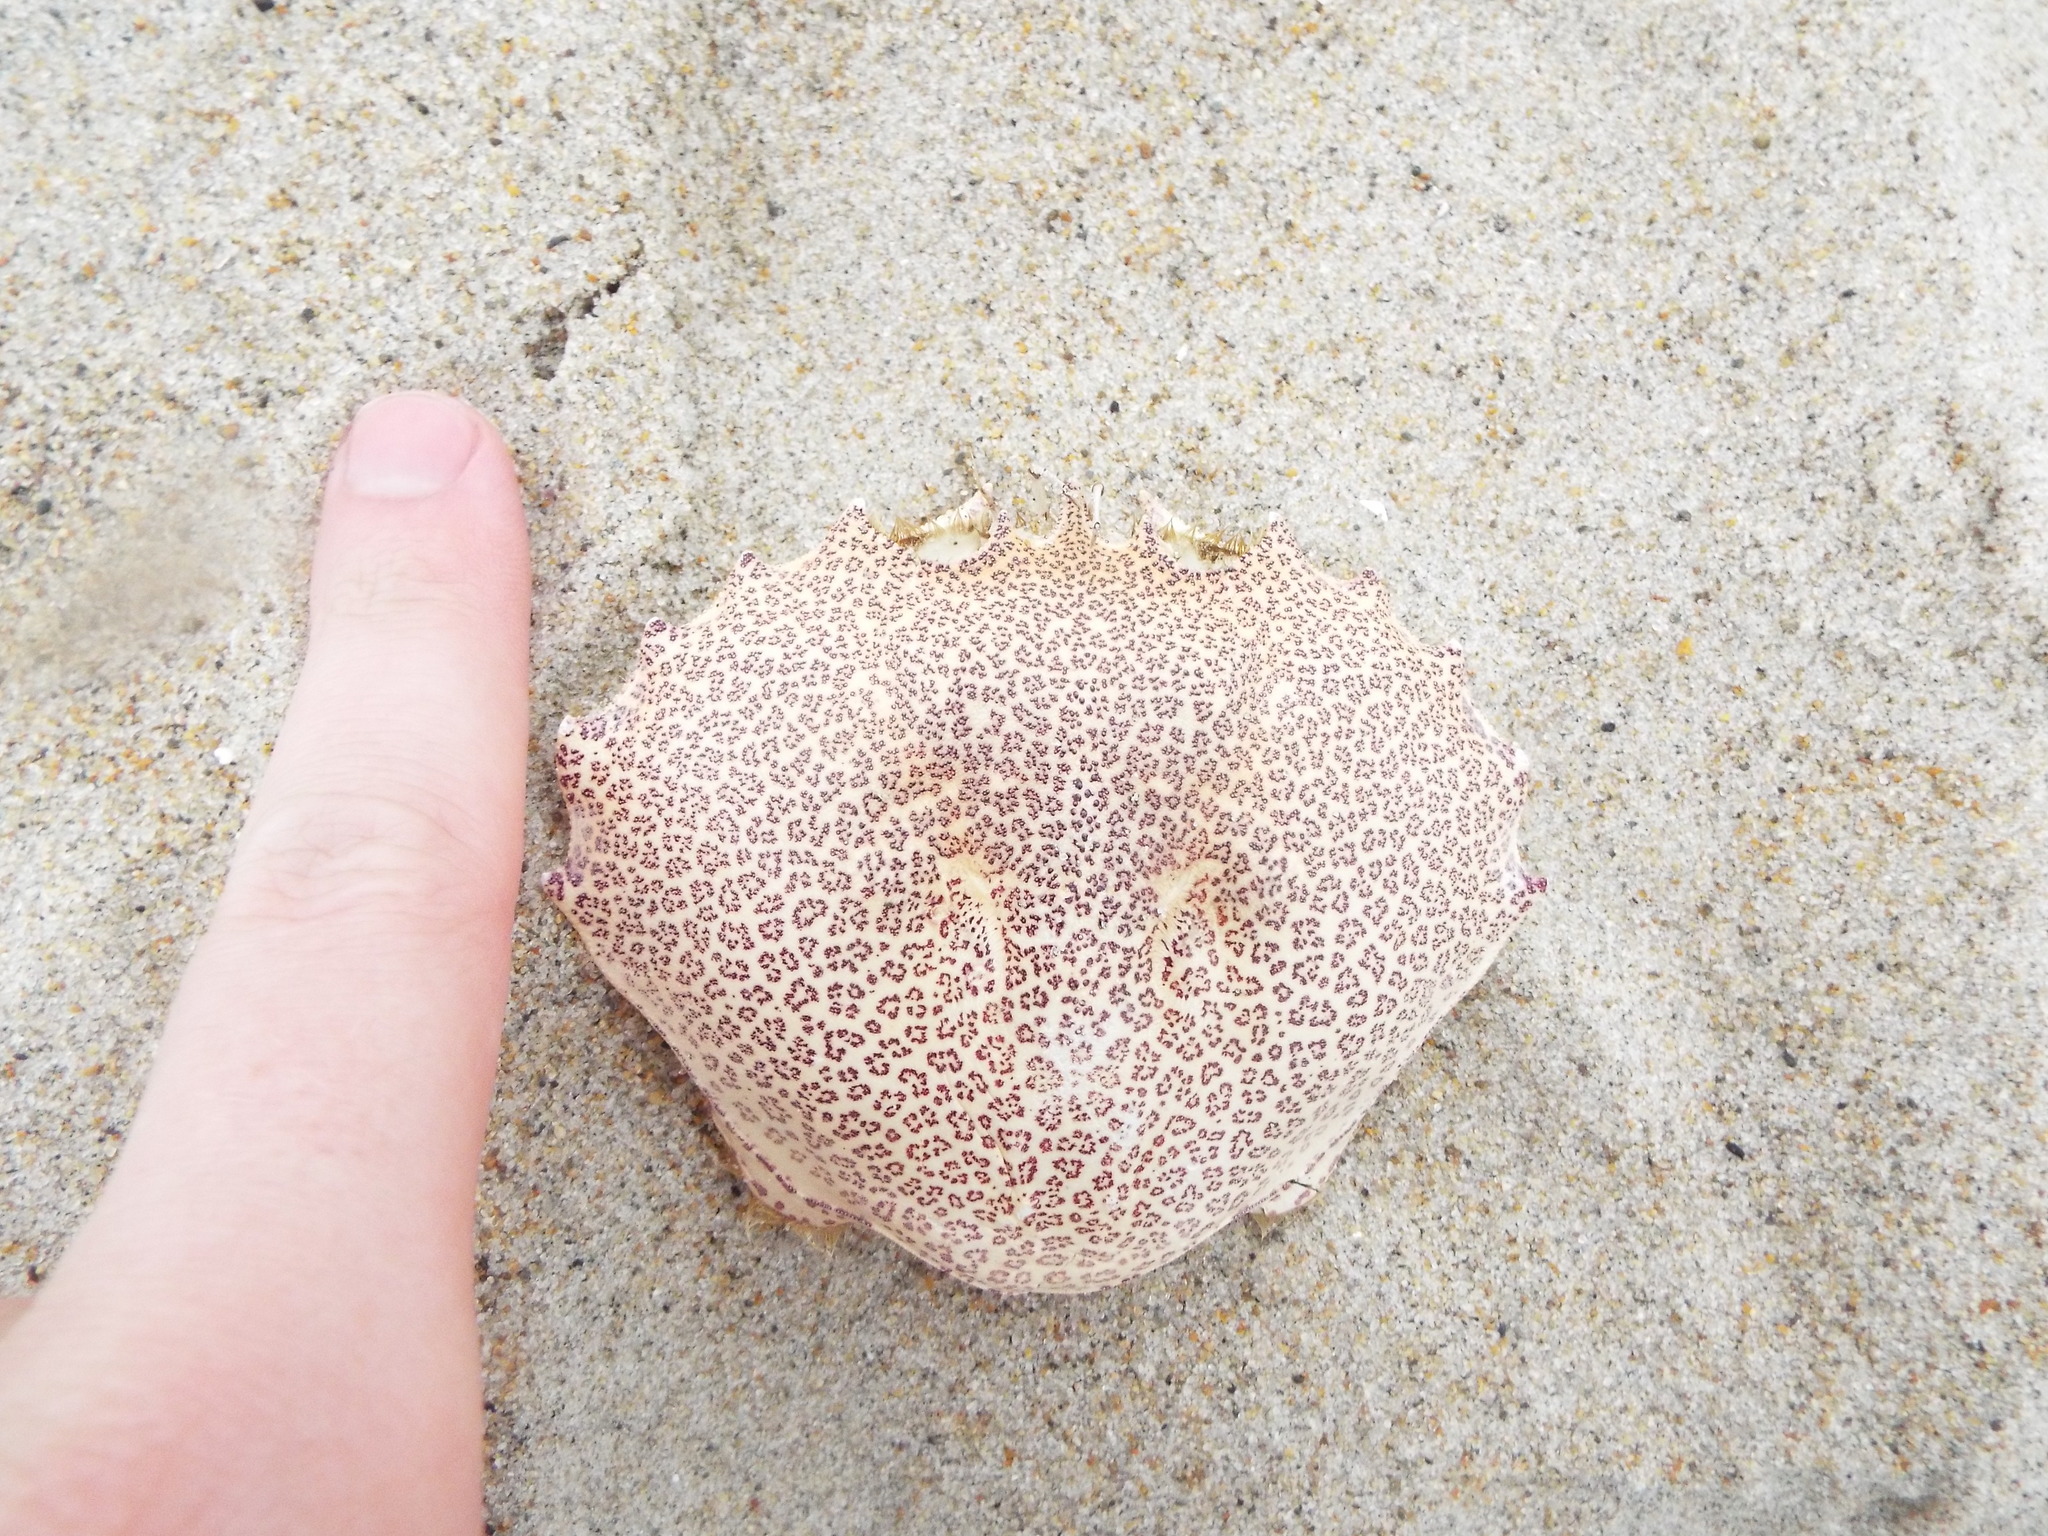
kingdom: Animalia
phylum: Arthropoda
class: Malacostraca
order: Decapoda
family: Ovalipidae
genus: Ovalipes
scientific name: Ovalipes ocellatus
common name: Lady crab
